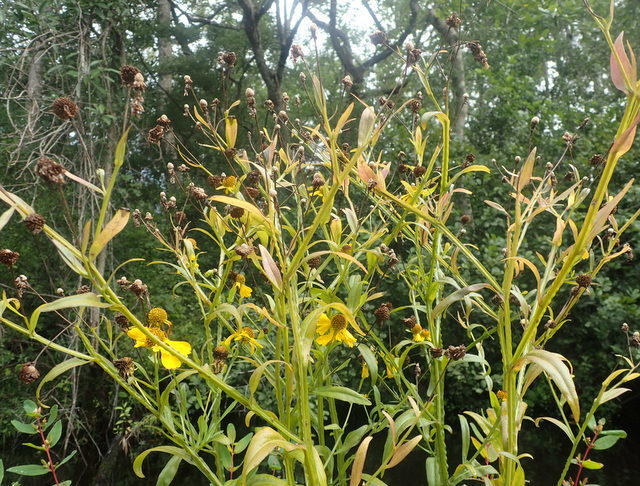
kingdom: Plantae
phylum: Tracheophyta
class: Magnoliopsida
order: Asterales
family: Asteraceae
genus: Helenium
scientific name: Helenium autumnale
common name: Sneezeweed
